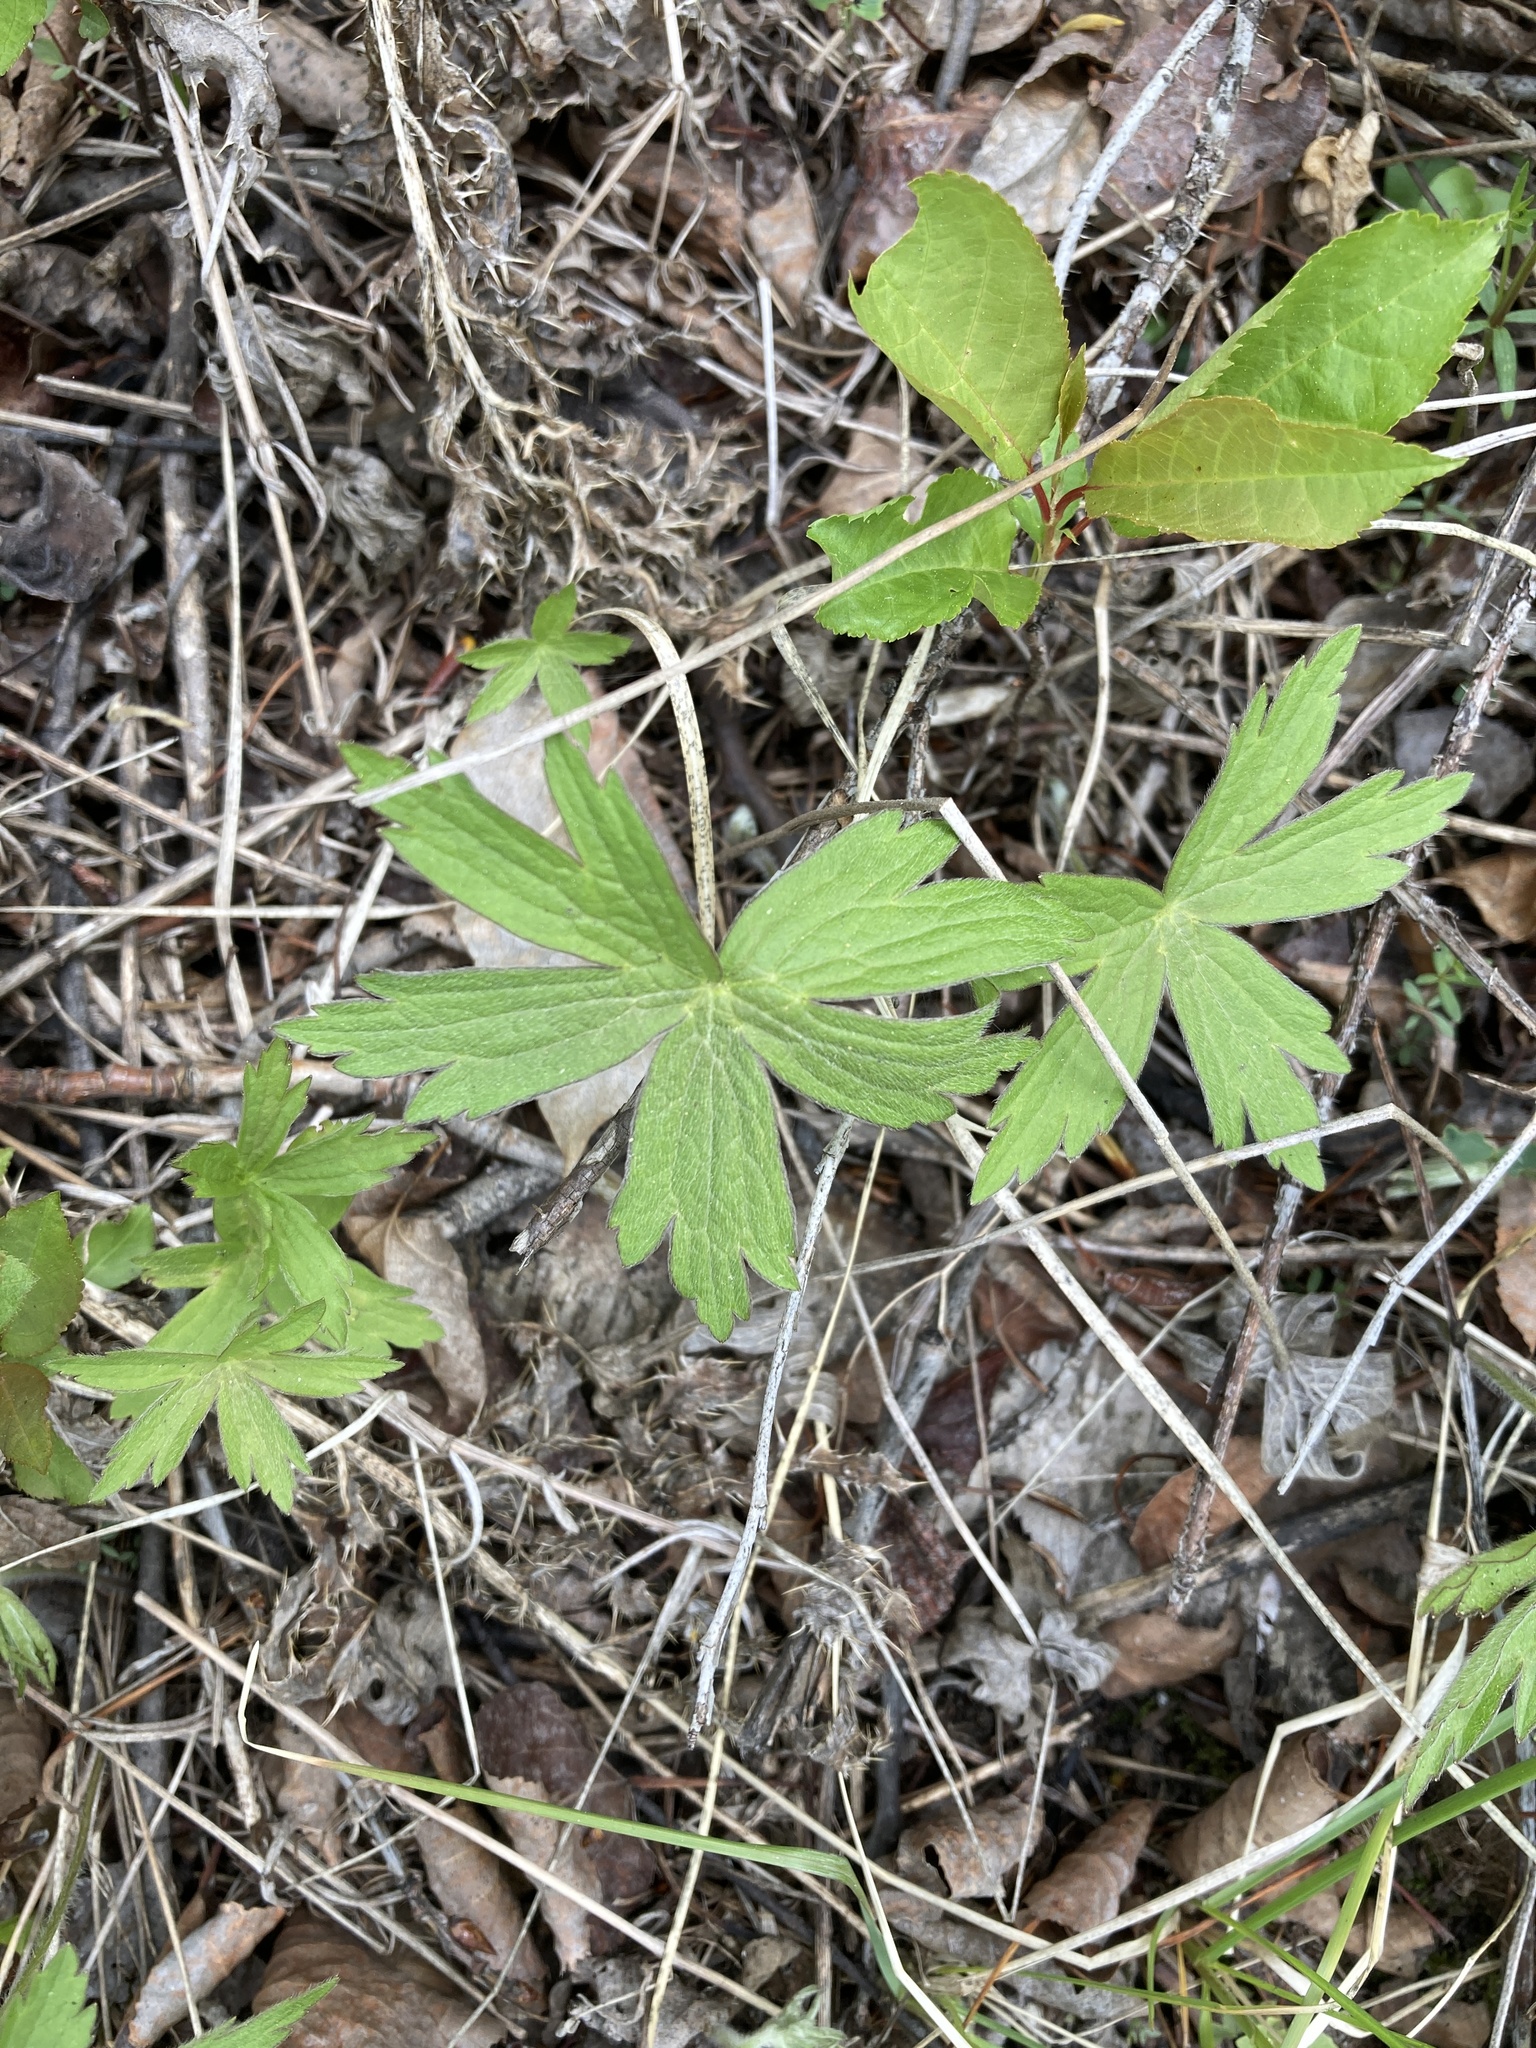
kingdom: Plantae
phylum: Tracheophyta
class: Magnoliopsida
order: Ranunculales
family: Ranunculaceae
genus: Anemonastrum
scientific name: Anemonastrum canadense
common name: Canada anemone
